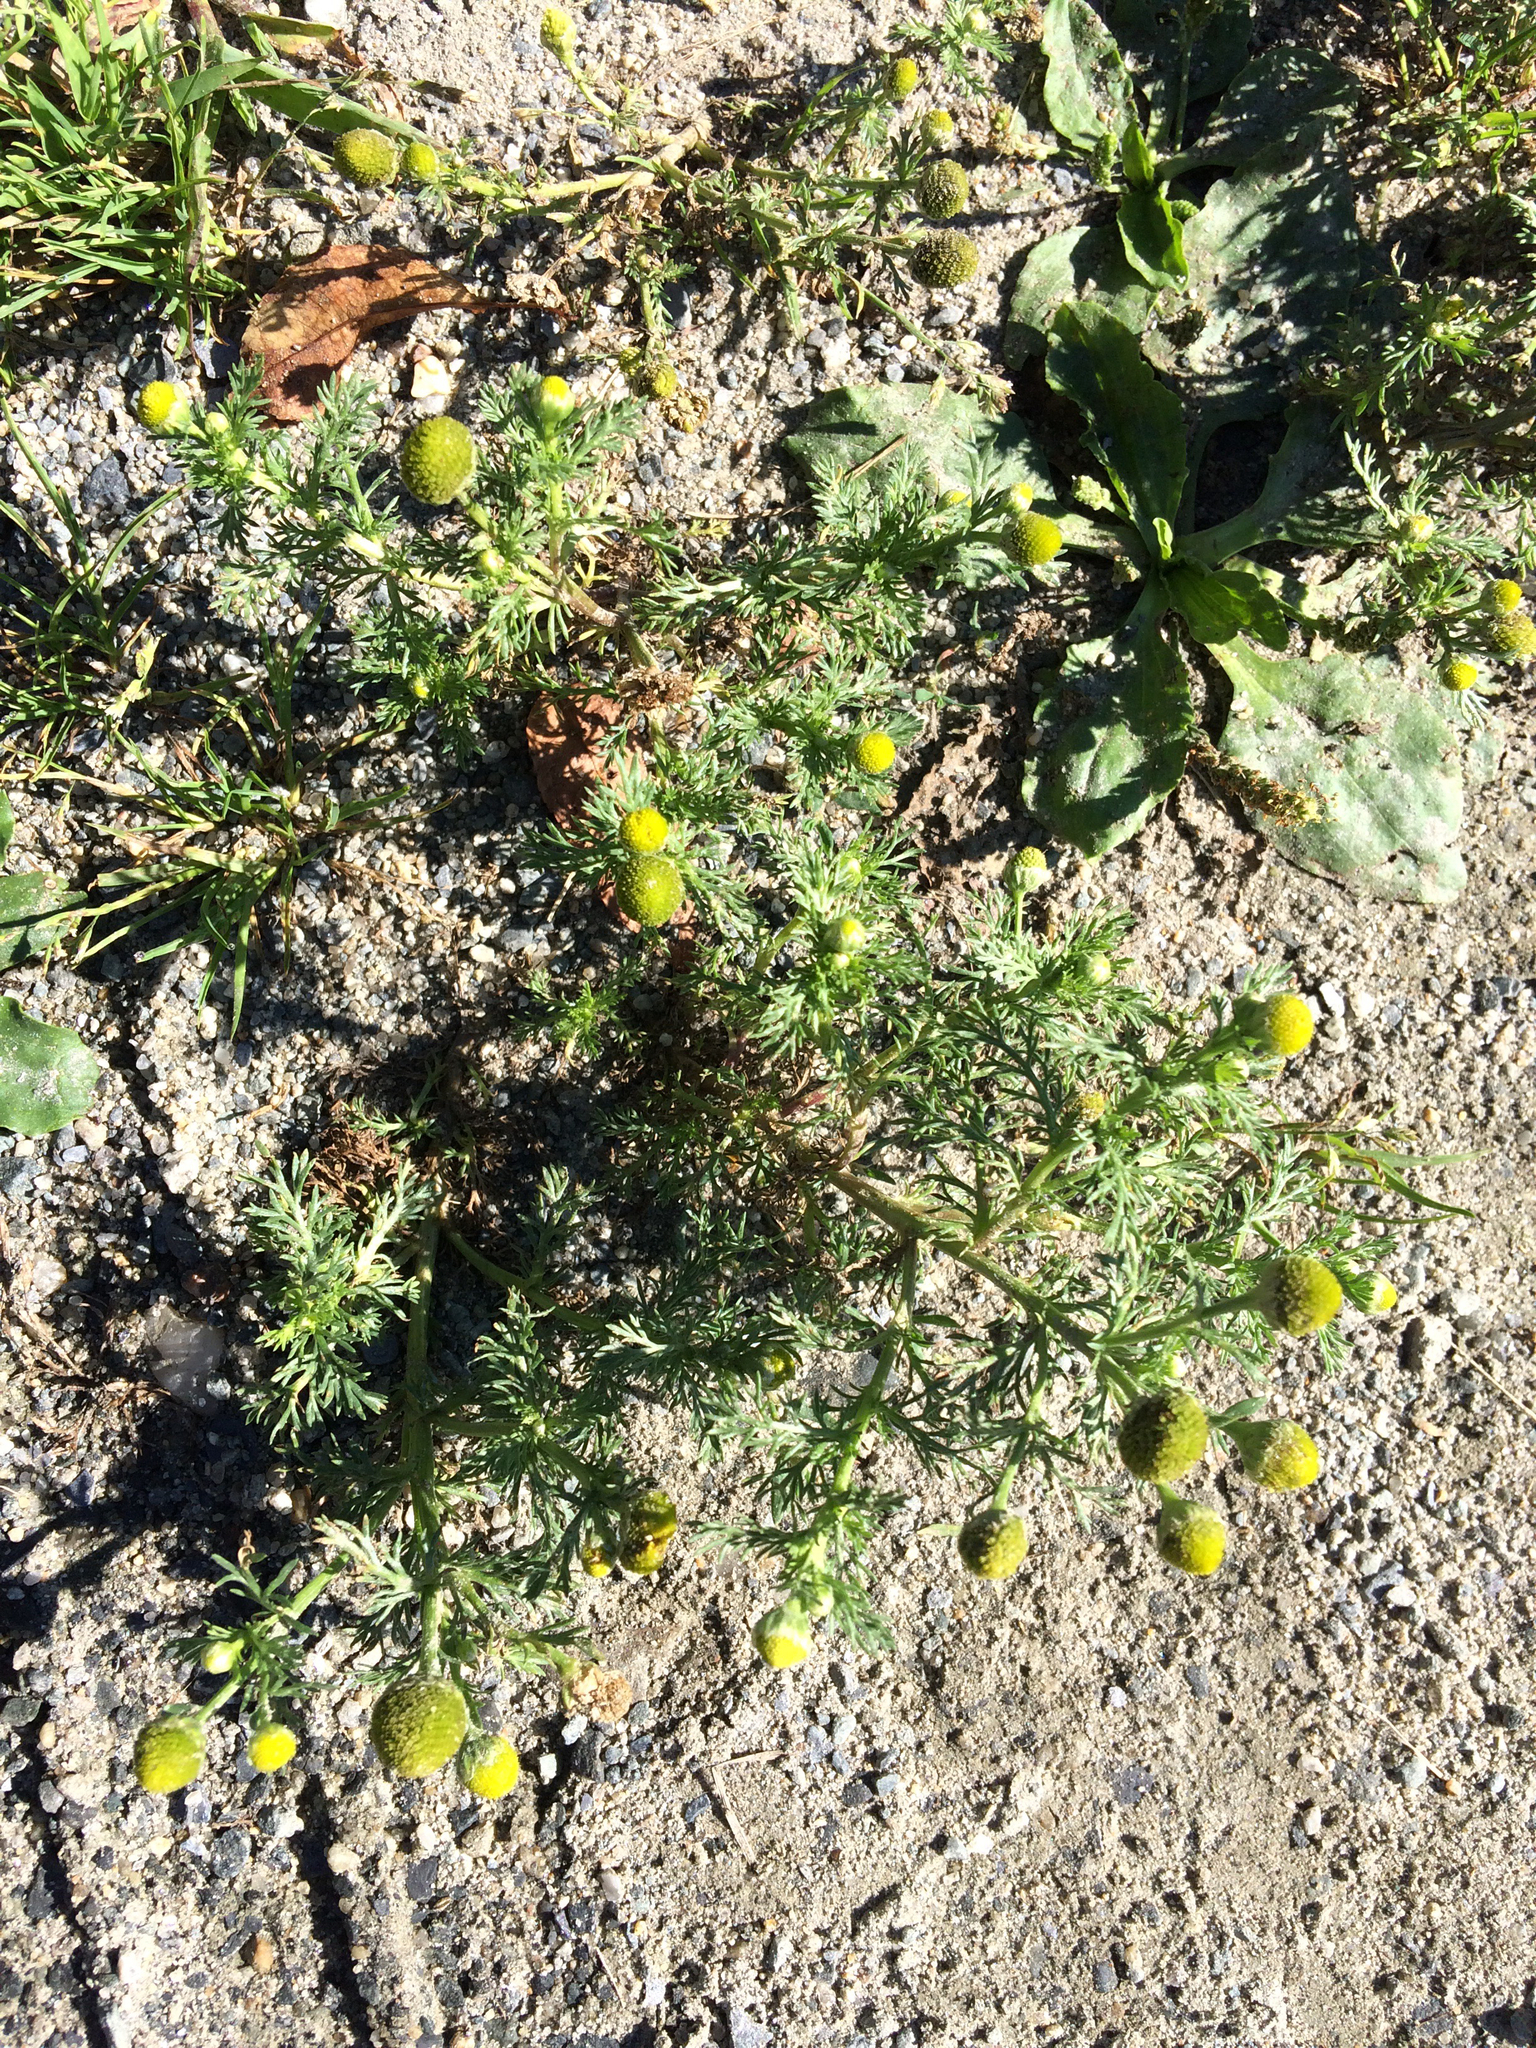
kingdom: Plantae
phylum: Tracheophyta
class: Magnoliopsida
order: Asterales
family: Asteraceae
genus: Matricaria
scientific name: Matricaria discoidea
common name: Disc mayweed
